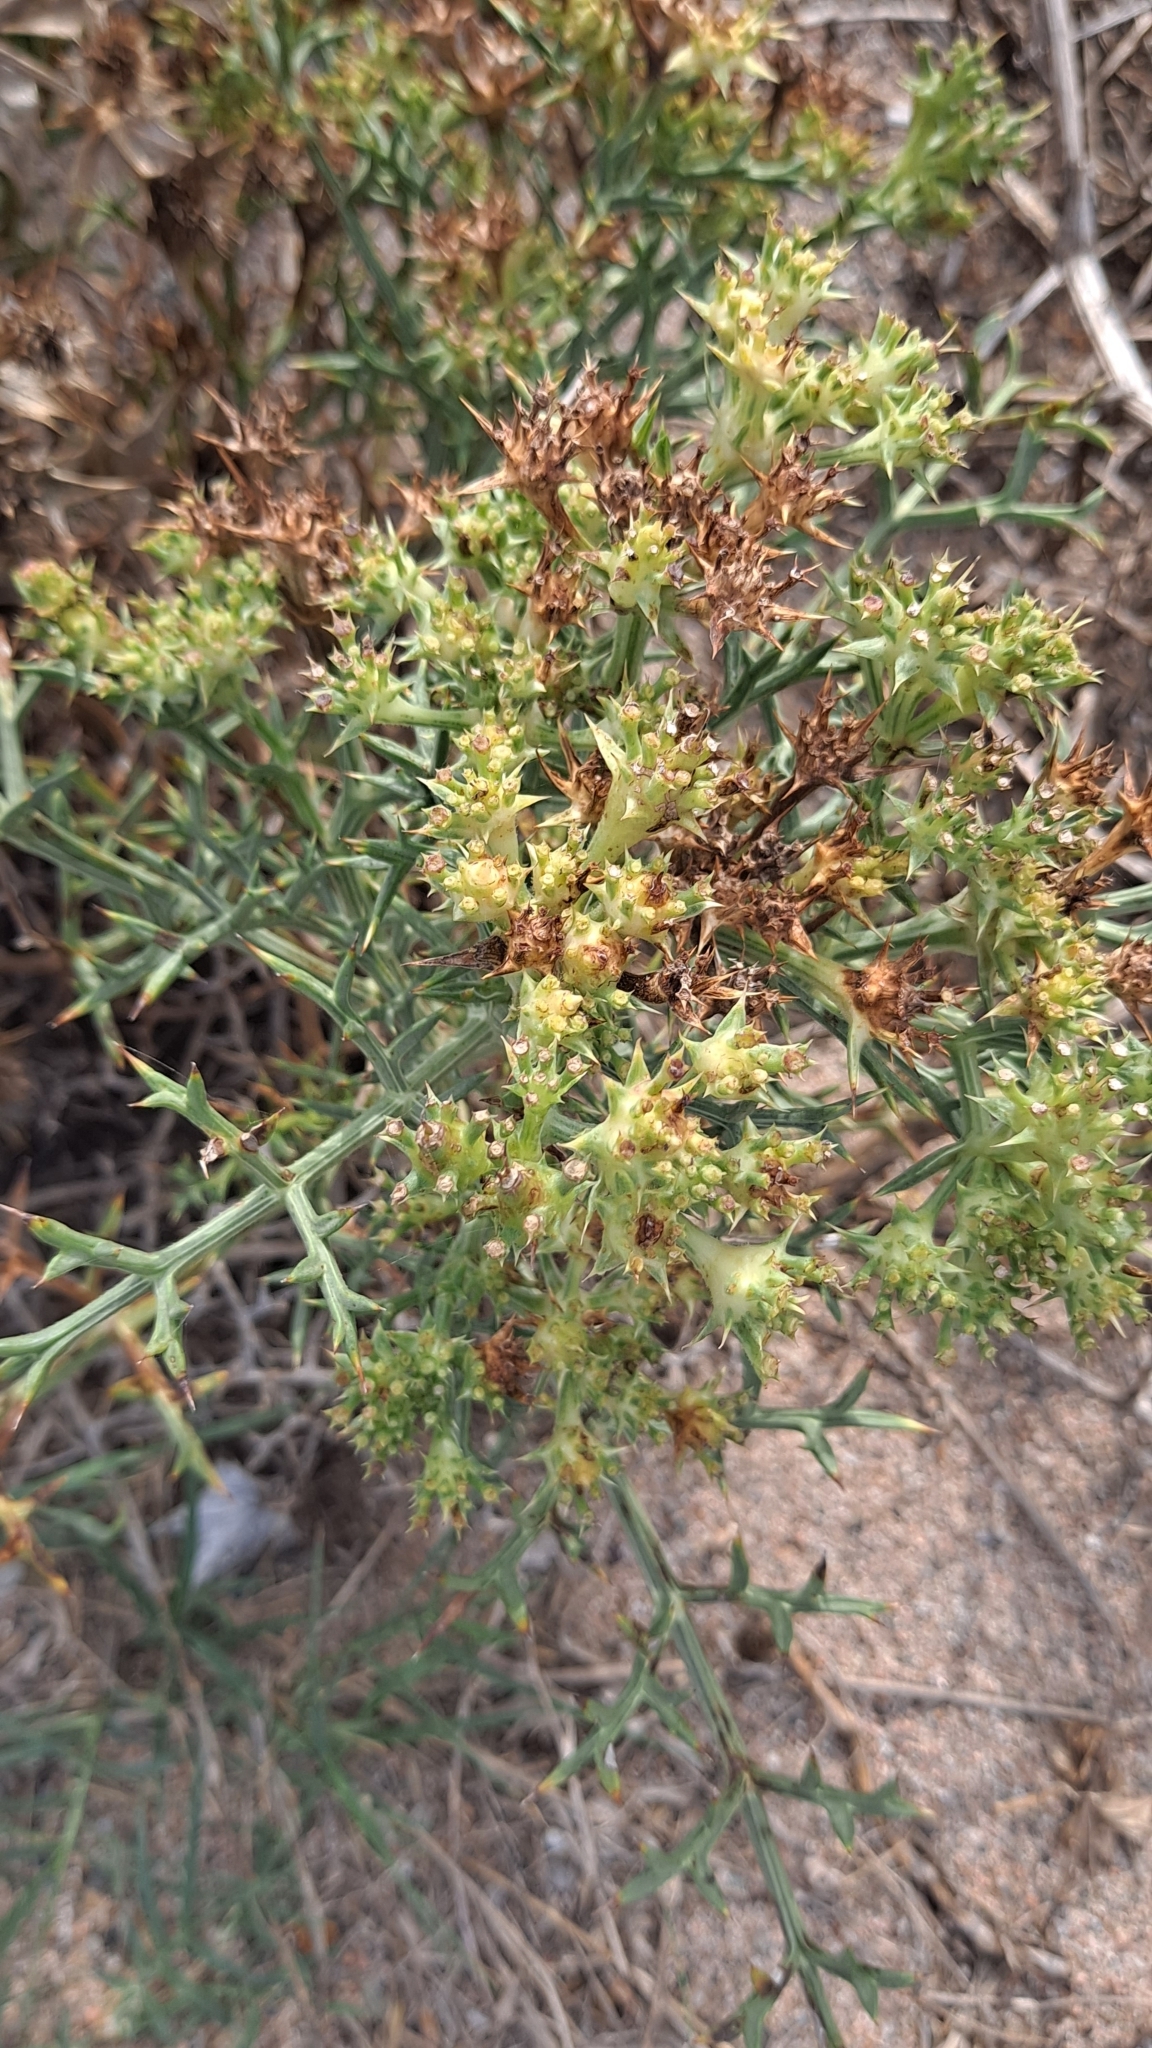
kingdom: Plantae
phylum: Tracheophyta
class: Magnoliopsida
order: Apiales
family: Apiaceae
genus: Echinophora
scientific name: Echinophora spinosa
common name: Prickly samphire
